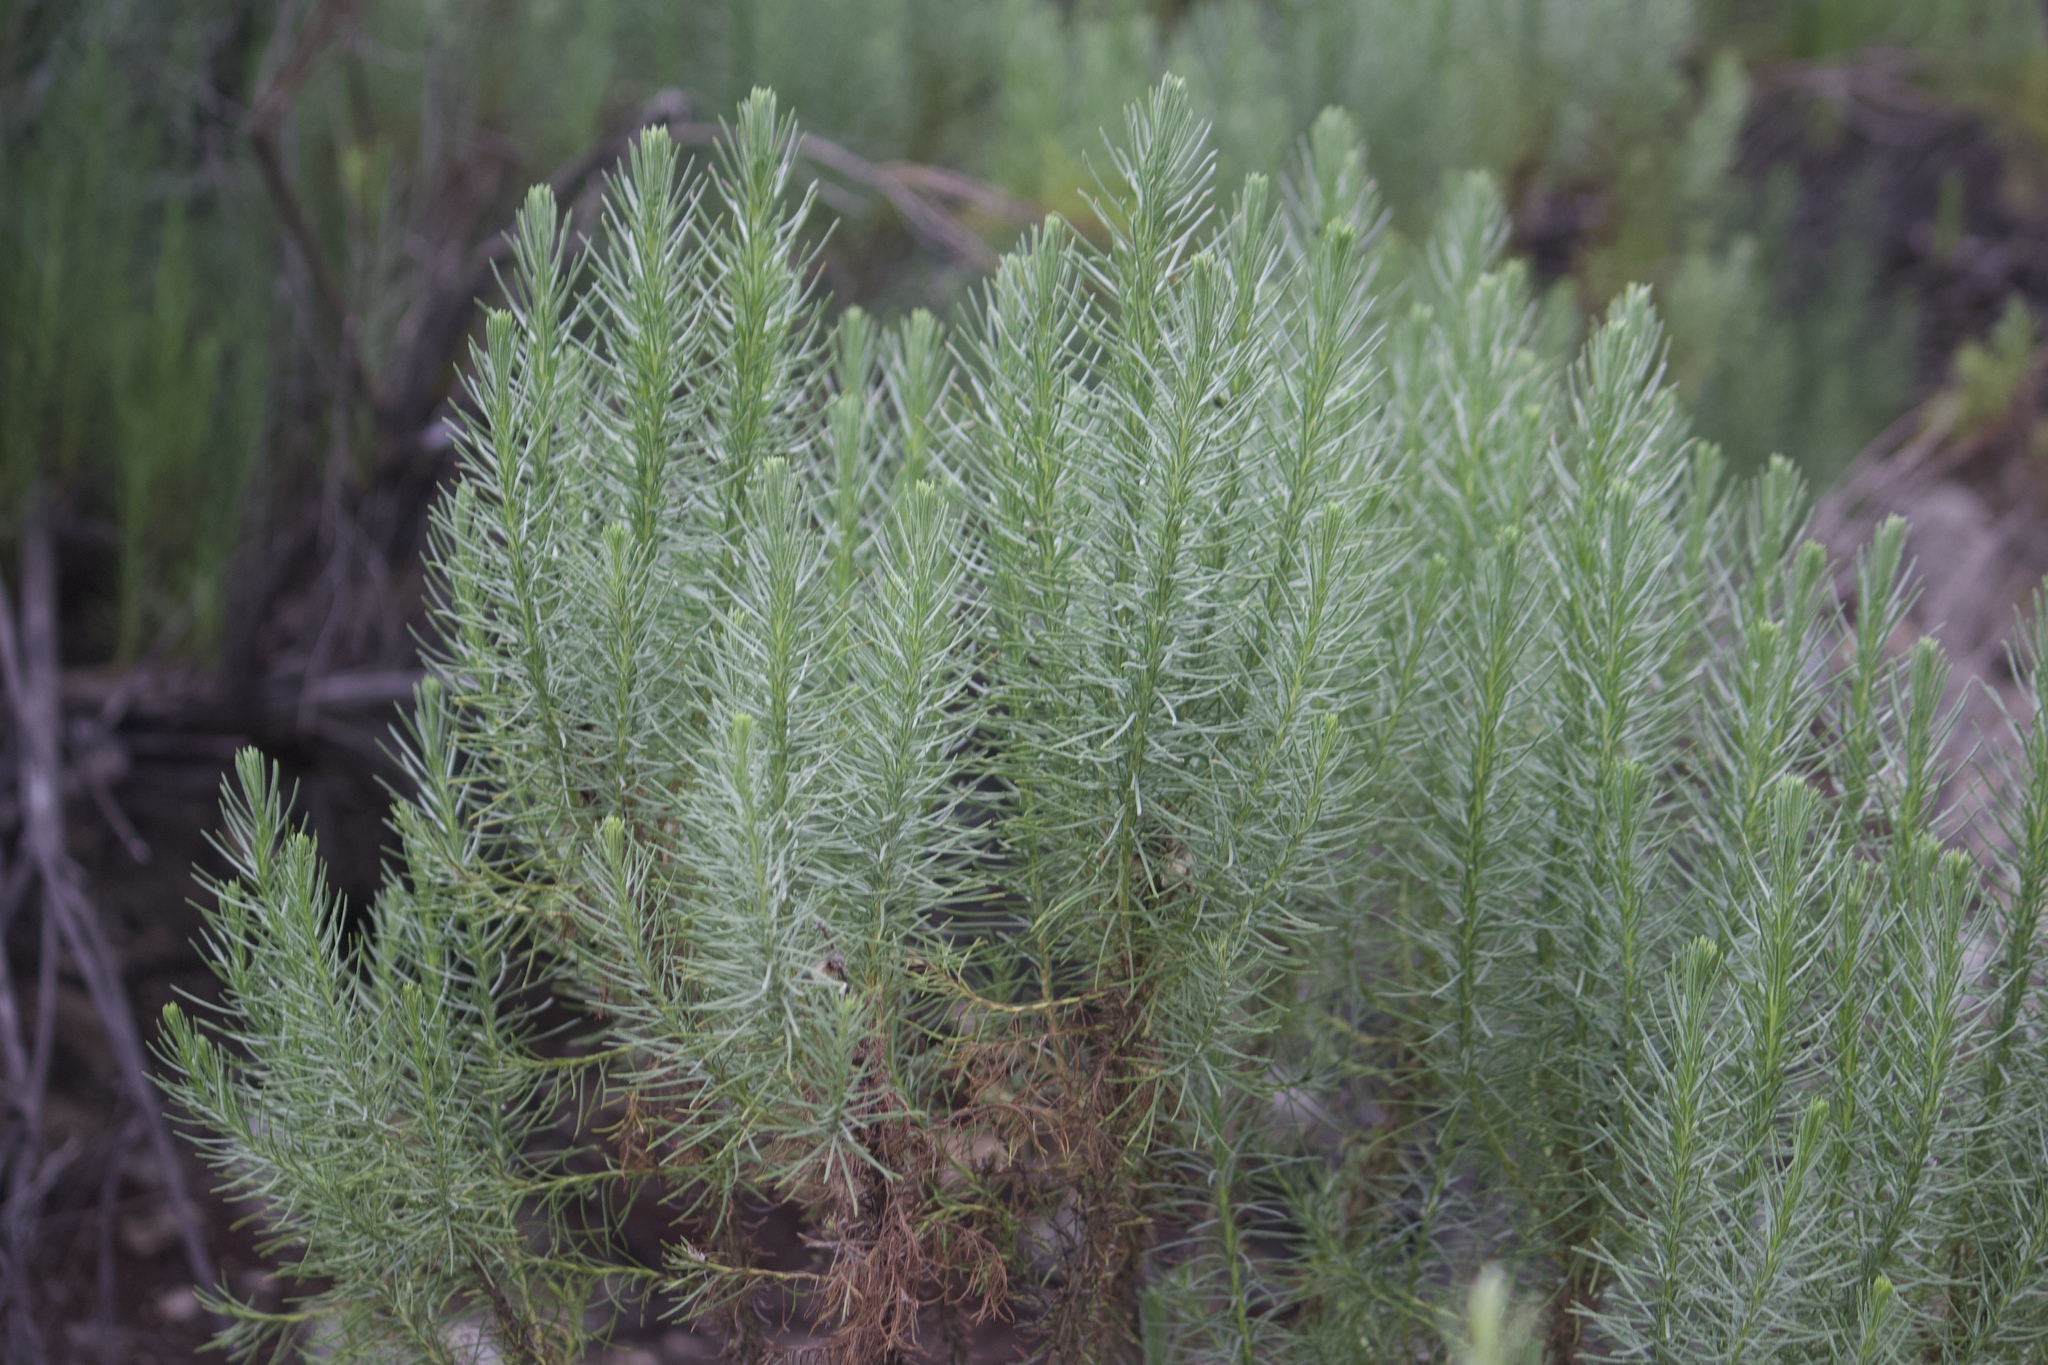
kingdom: Plantae
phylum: Tracheophyta
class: Magnoliopsida
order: Asterales
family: Asteraceae
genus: Ericameria
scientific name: Ericameria pinifolia
